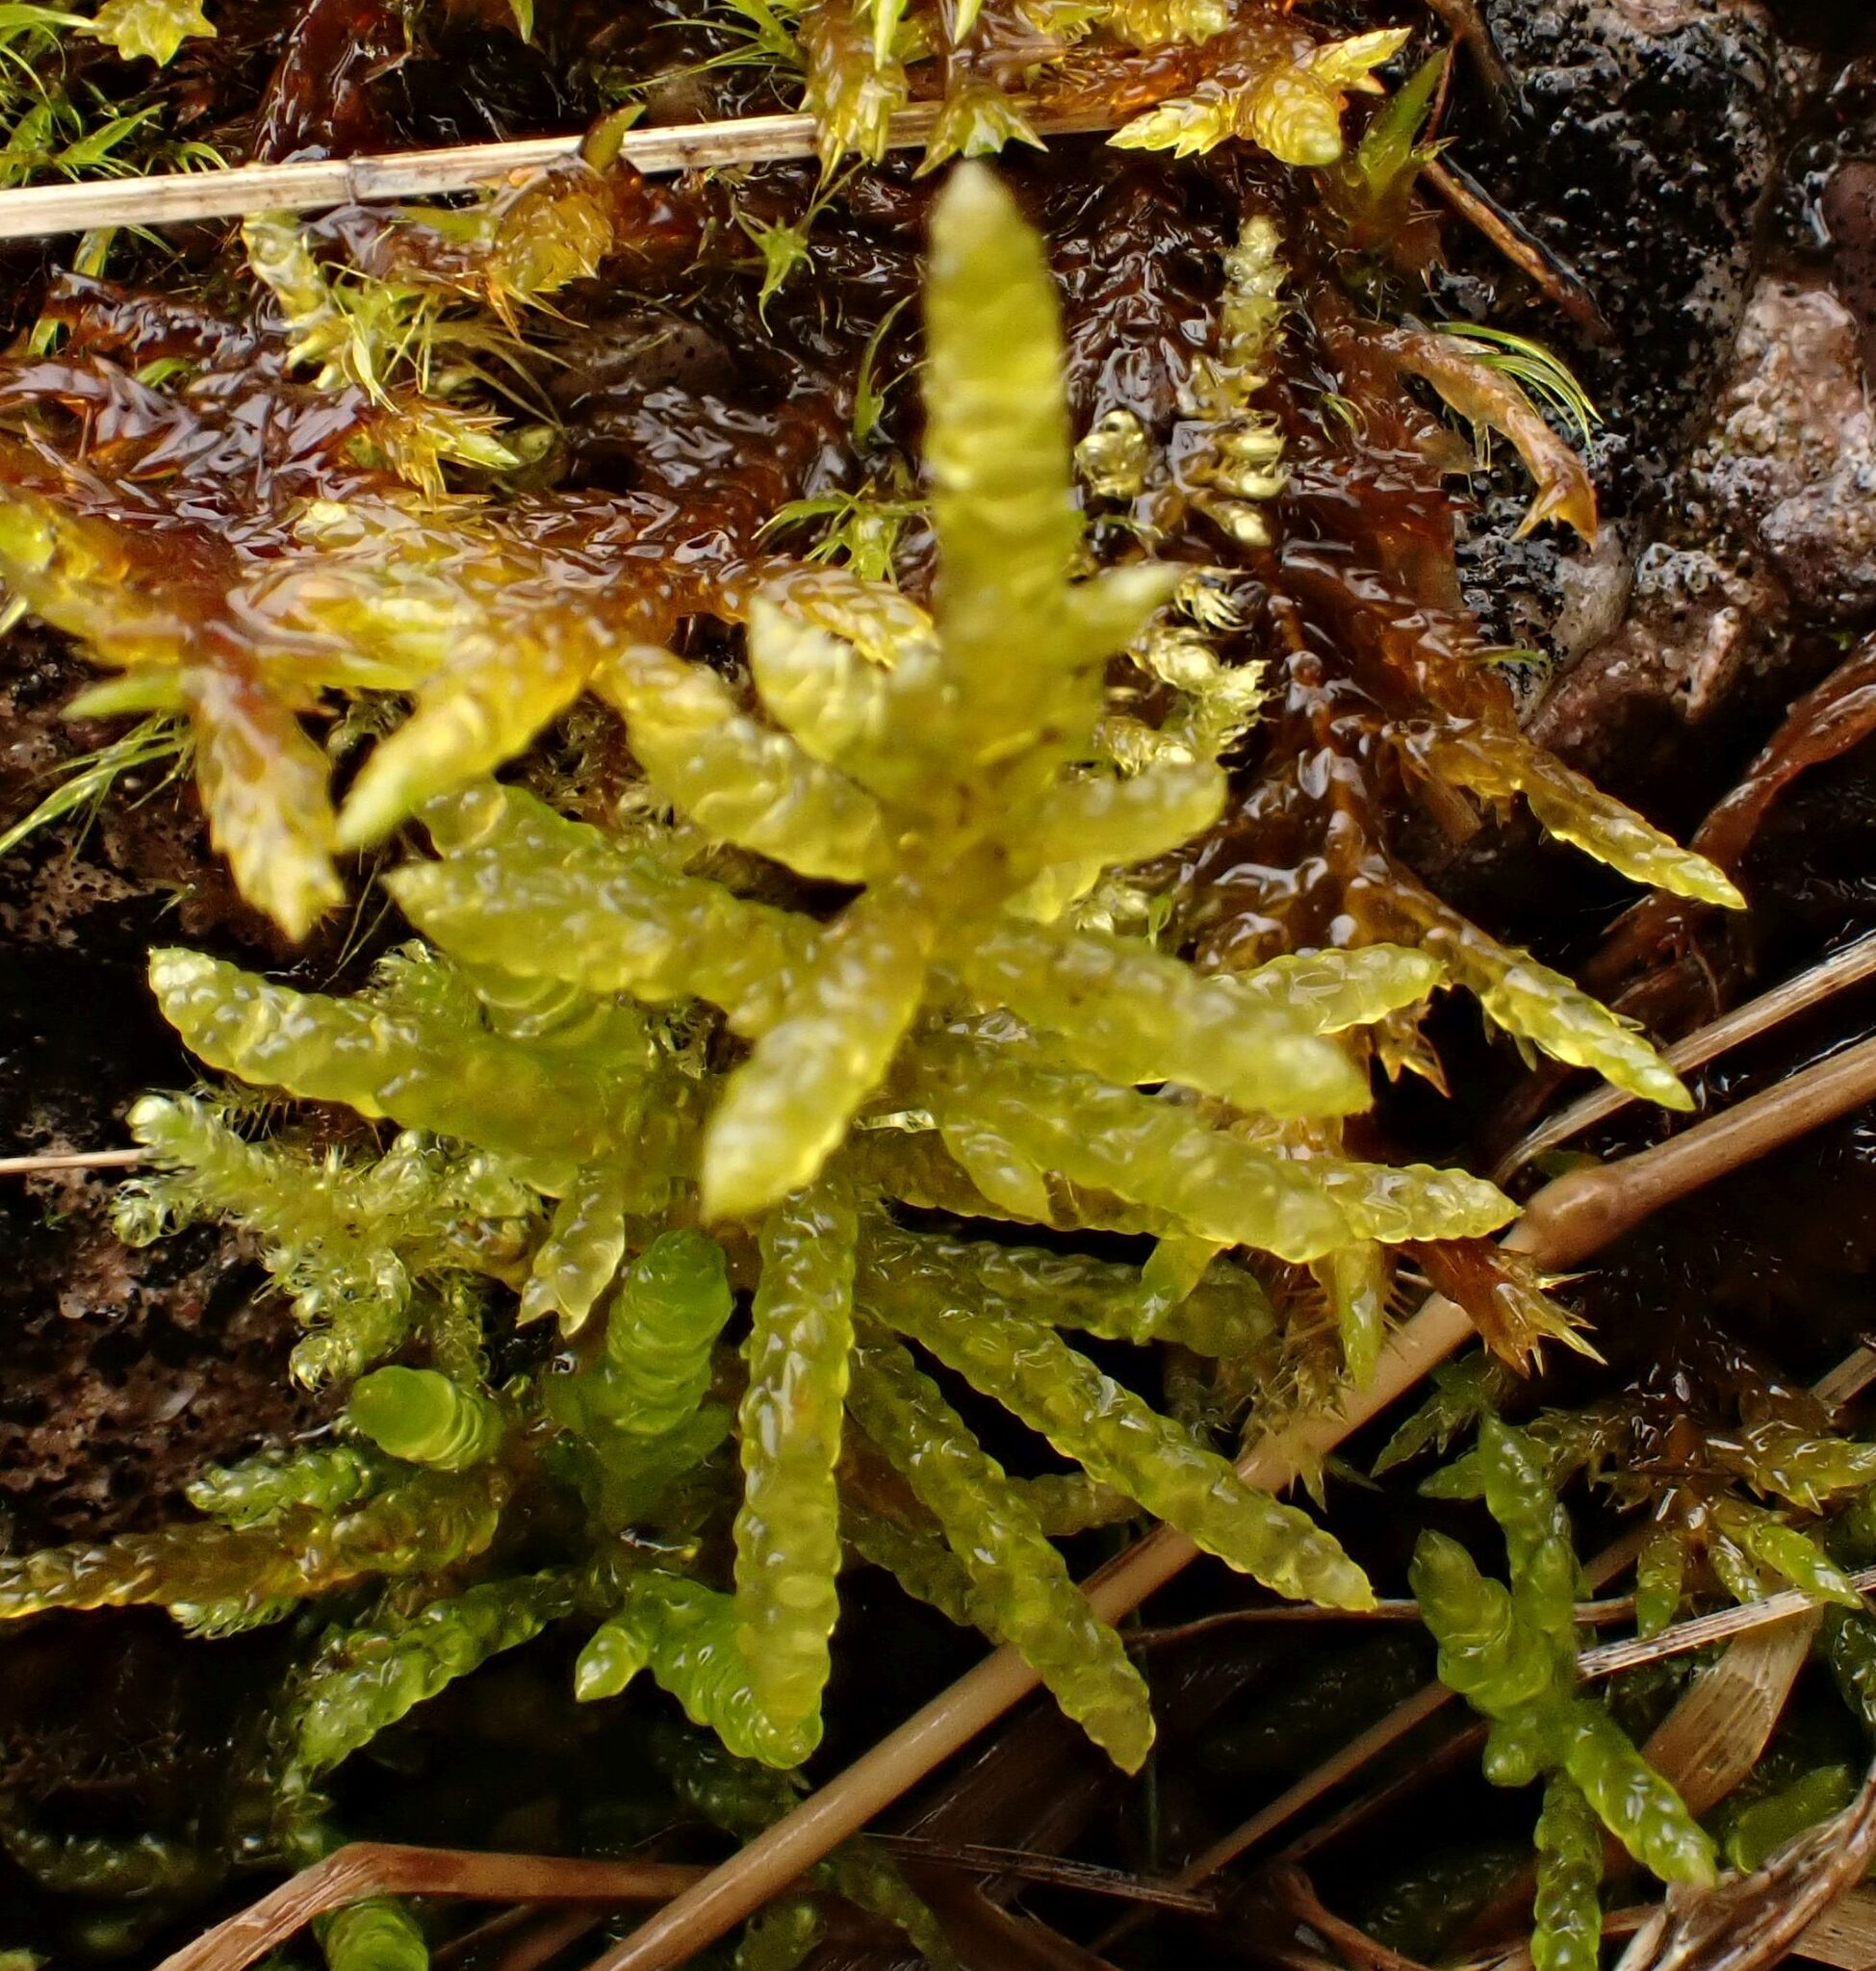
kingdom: Plantae
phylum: Bryophyta
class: Bryopsida
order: Hypnales
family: Brachytheciaceae
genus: Pseudoscleropodium
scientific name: Pseudoscleropodium purum
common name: Neat feather-moss
